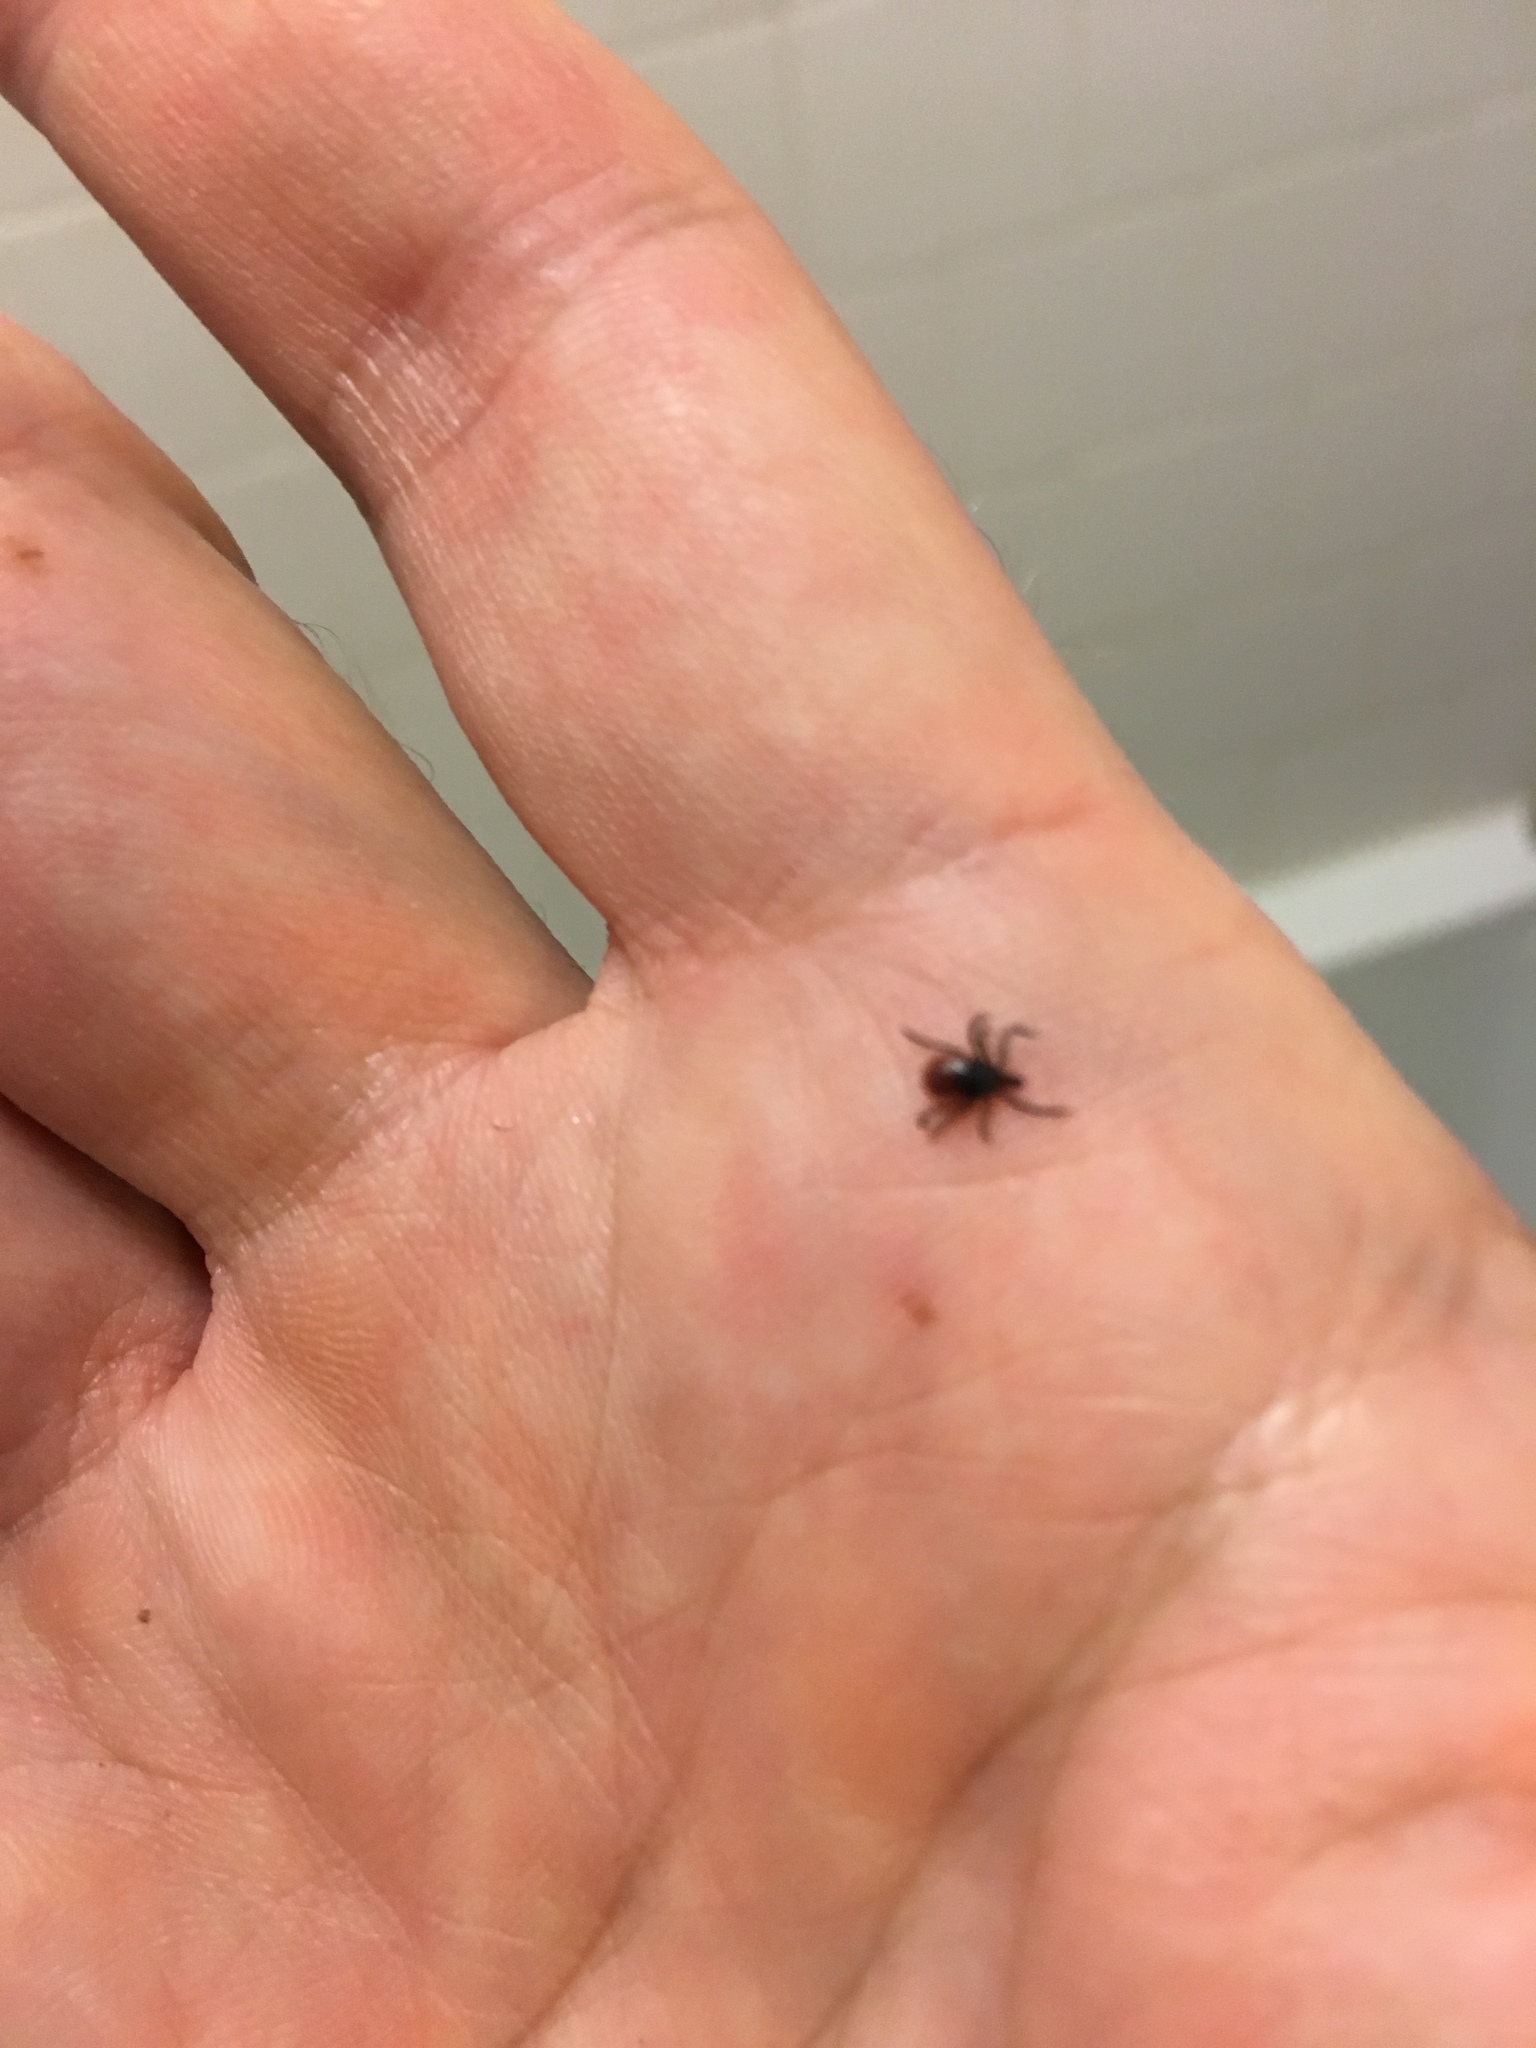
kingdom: Animalia
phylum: Arthropoda
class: Arachnida
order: Ixodida
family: Ixodidae
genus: Ixodes
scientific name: Ixodes scapularis
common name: Black legged tick
